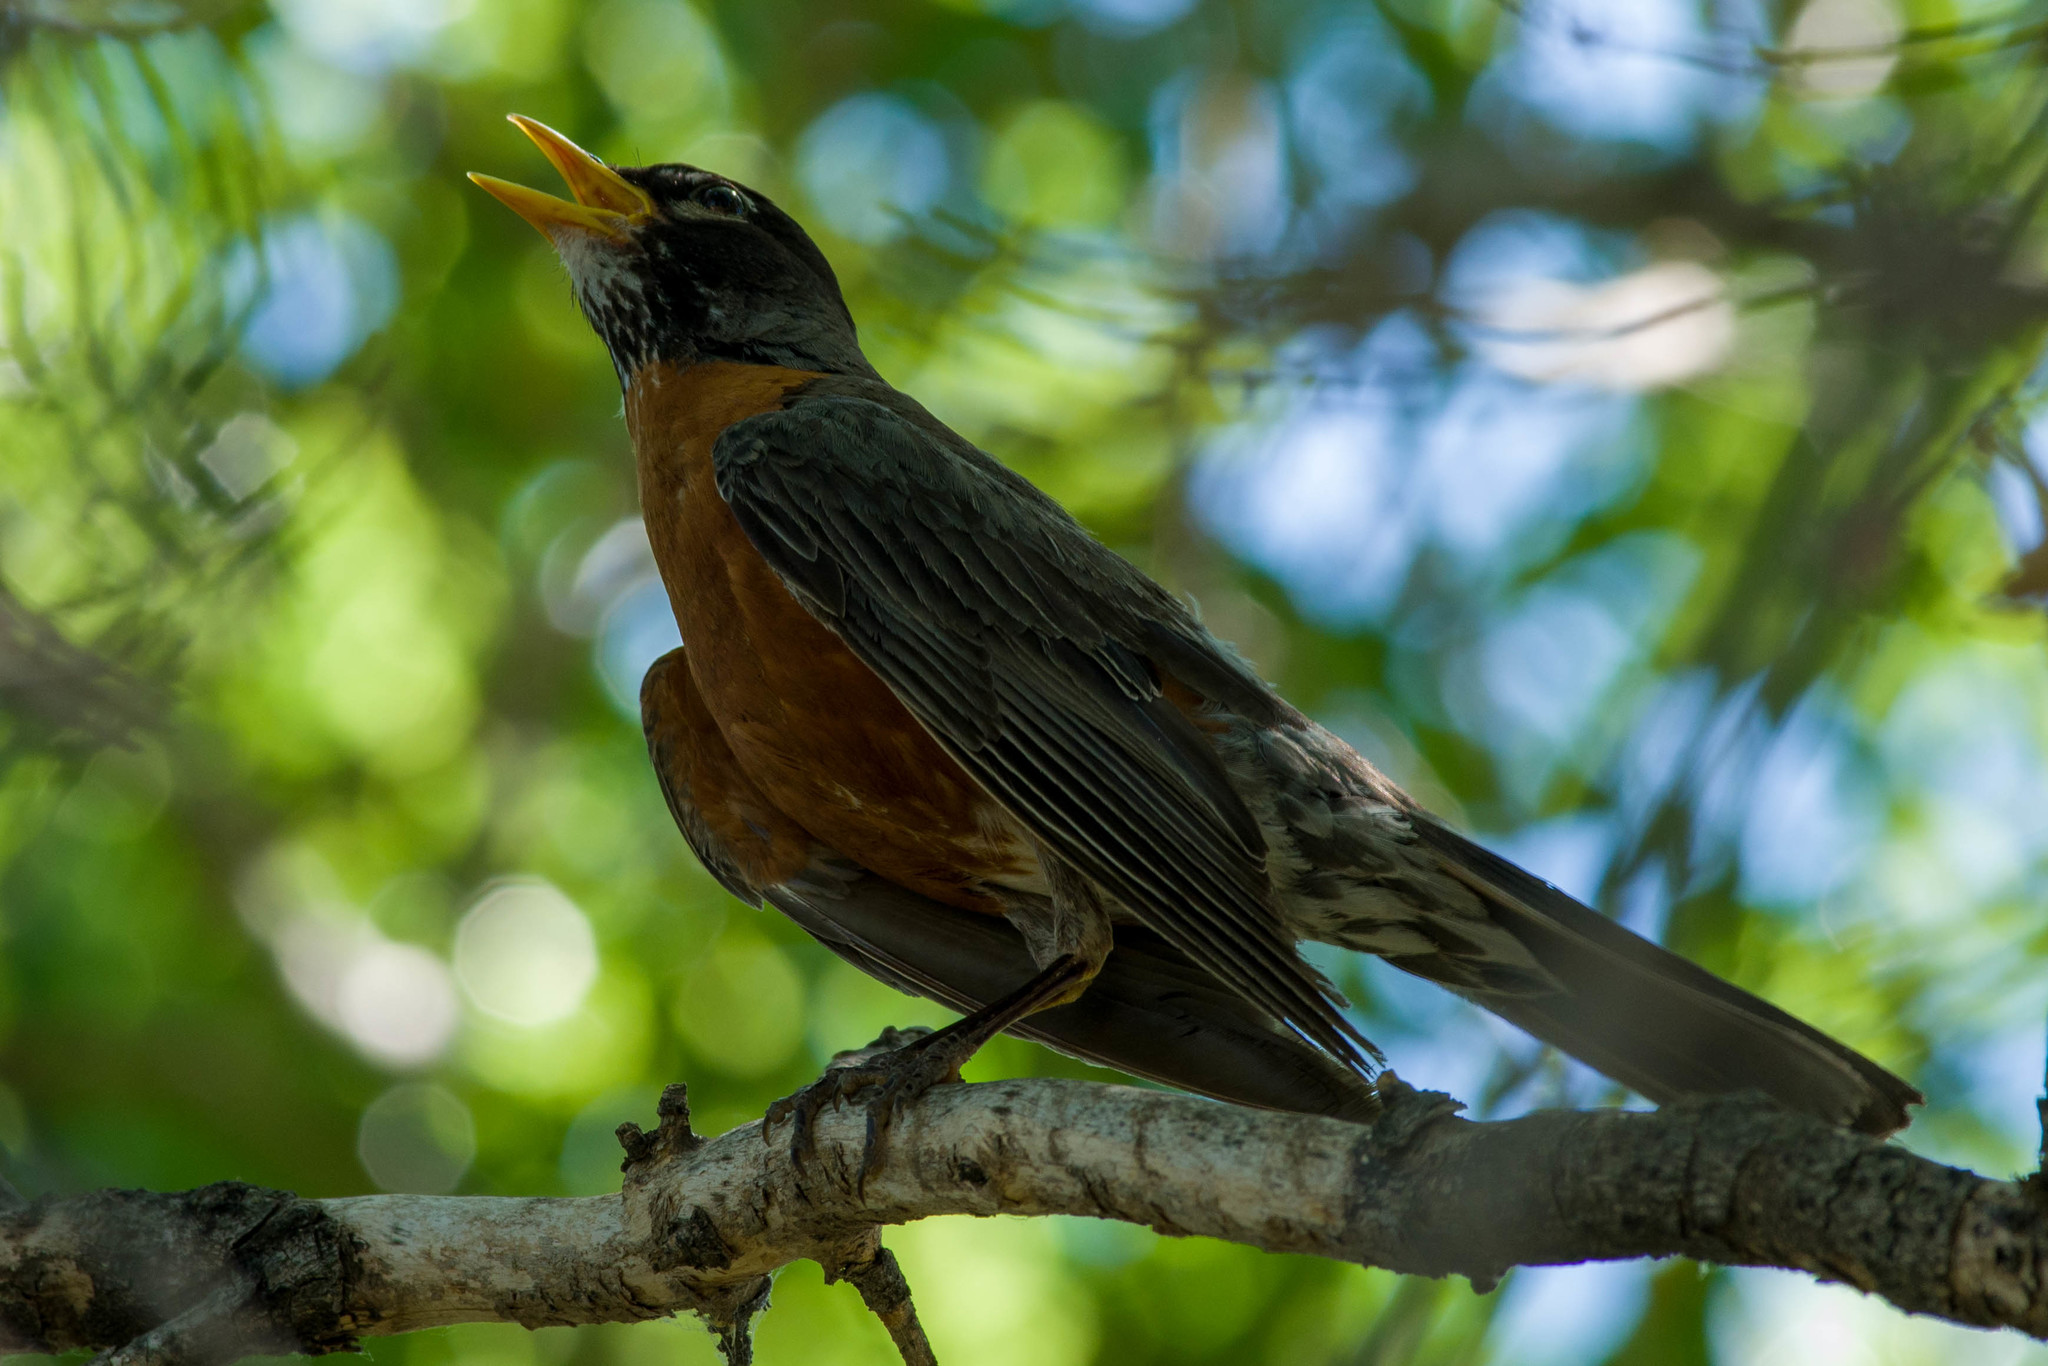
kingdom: Animalia
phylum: Chordata
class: Aves
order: Passeriformes
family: Turdidae
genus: Turdus
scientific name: Turdus migratorius
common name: American robin
